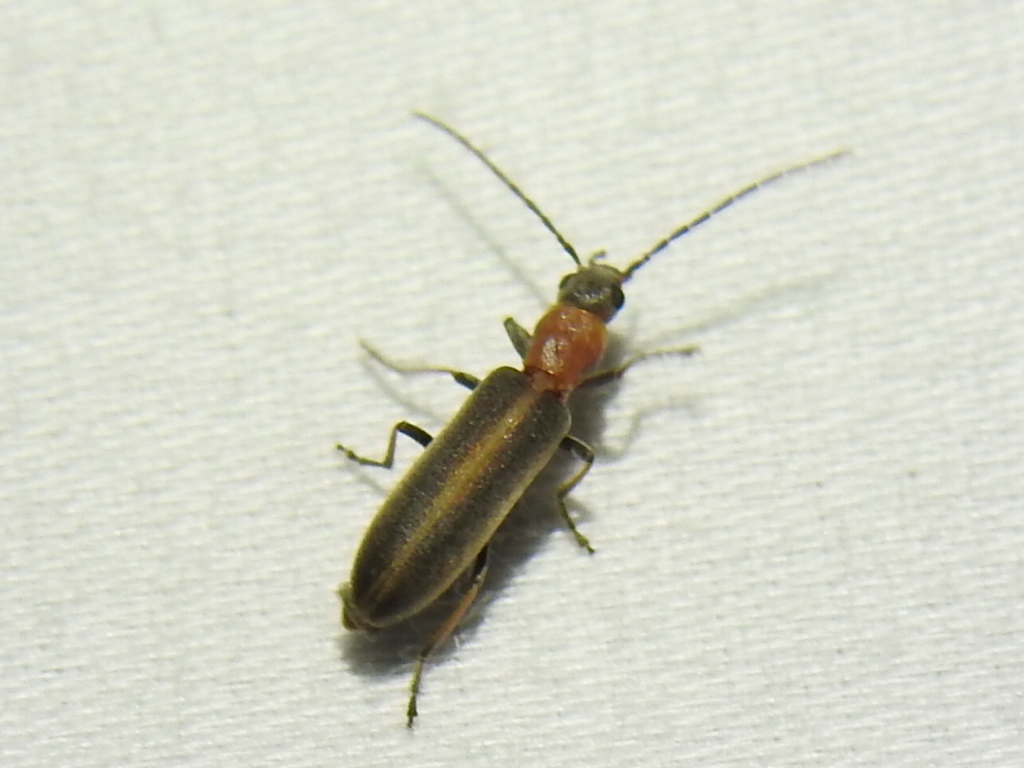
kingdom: Animalia
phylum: Arthropoda
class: Insecta
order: Coleoptera
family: Oedemeridae
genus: Oxycopis
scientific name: Oxycopis mimetica
